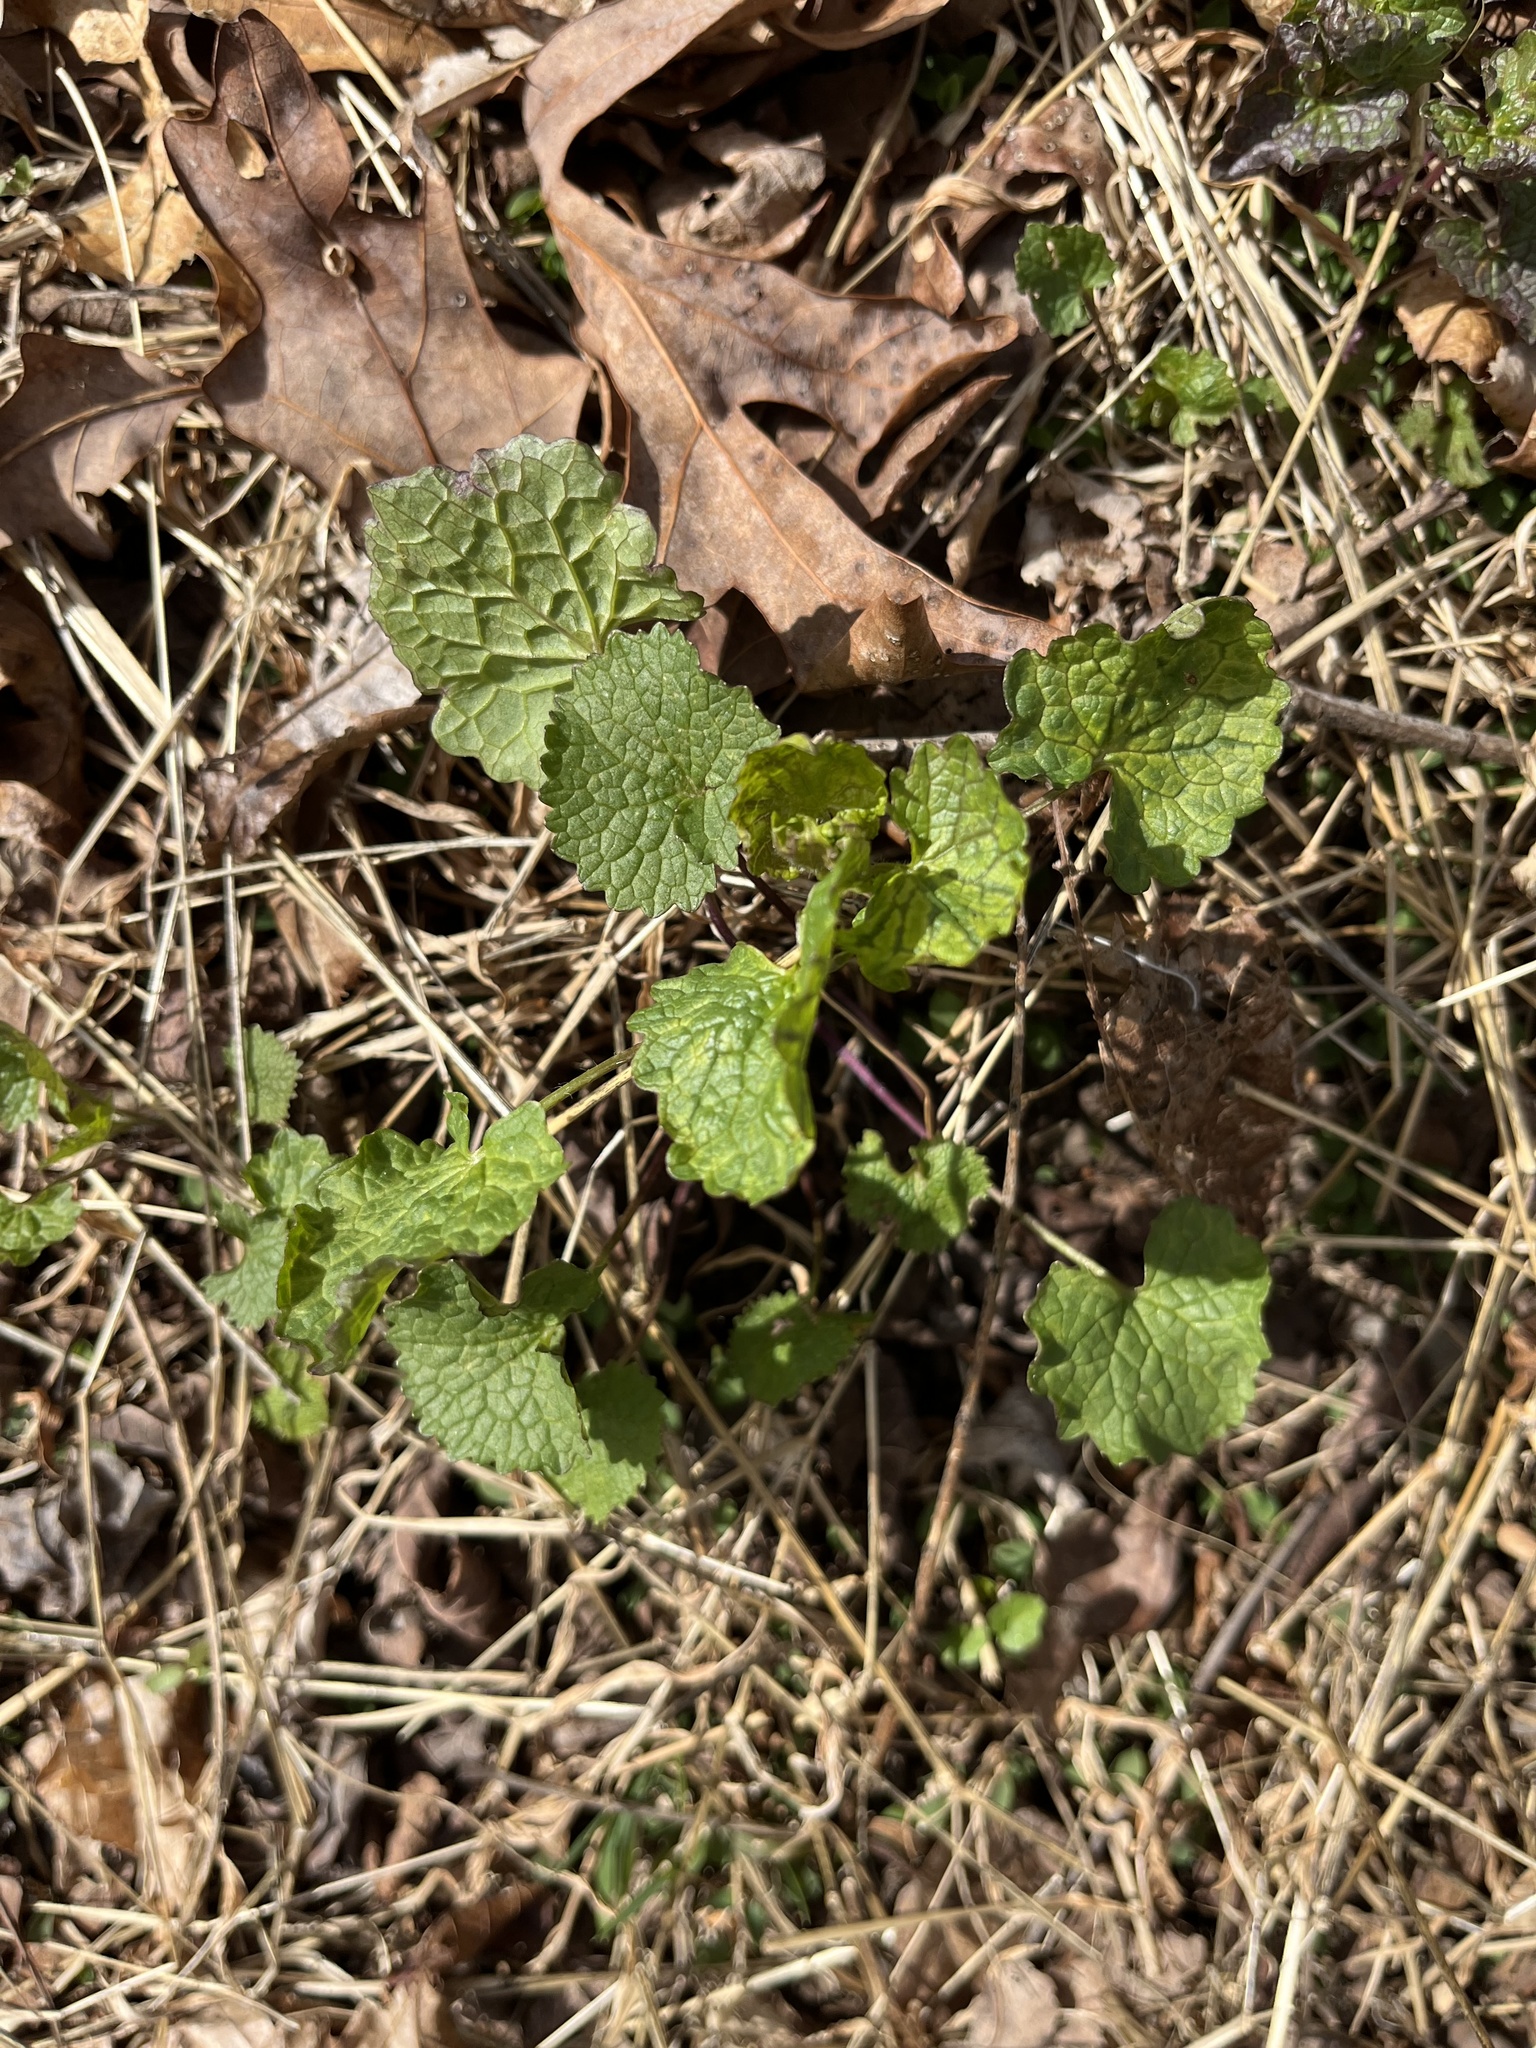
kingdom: Plantae
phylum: Tracheophyta
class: Magnoliopsida
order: Brassicales
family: Brassicaceae
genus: Alliaria
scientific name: Alliaria petiolata
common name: Garlic mustard
